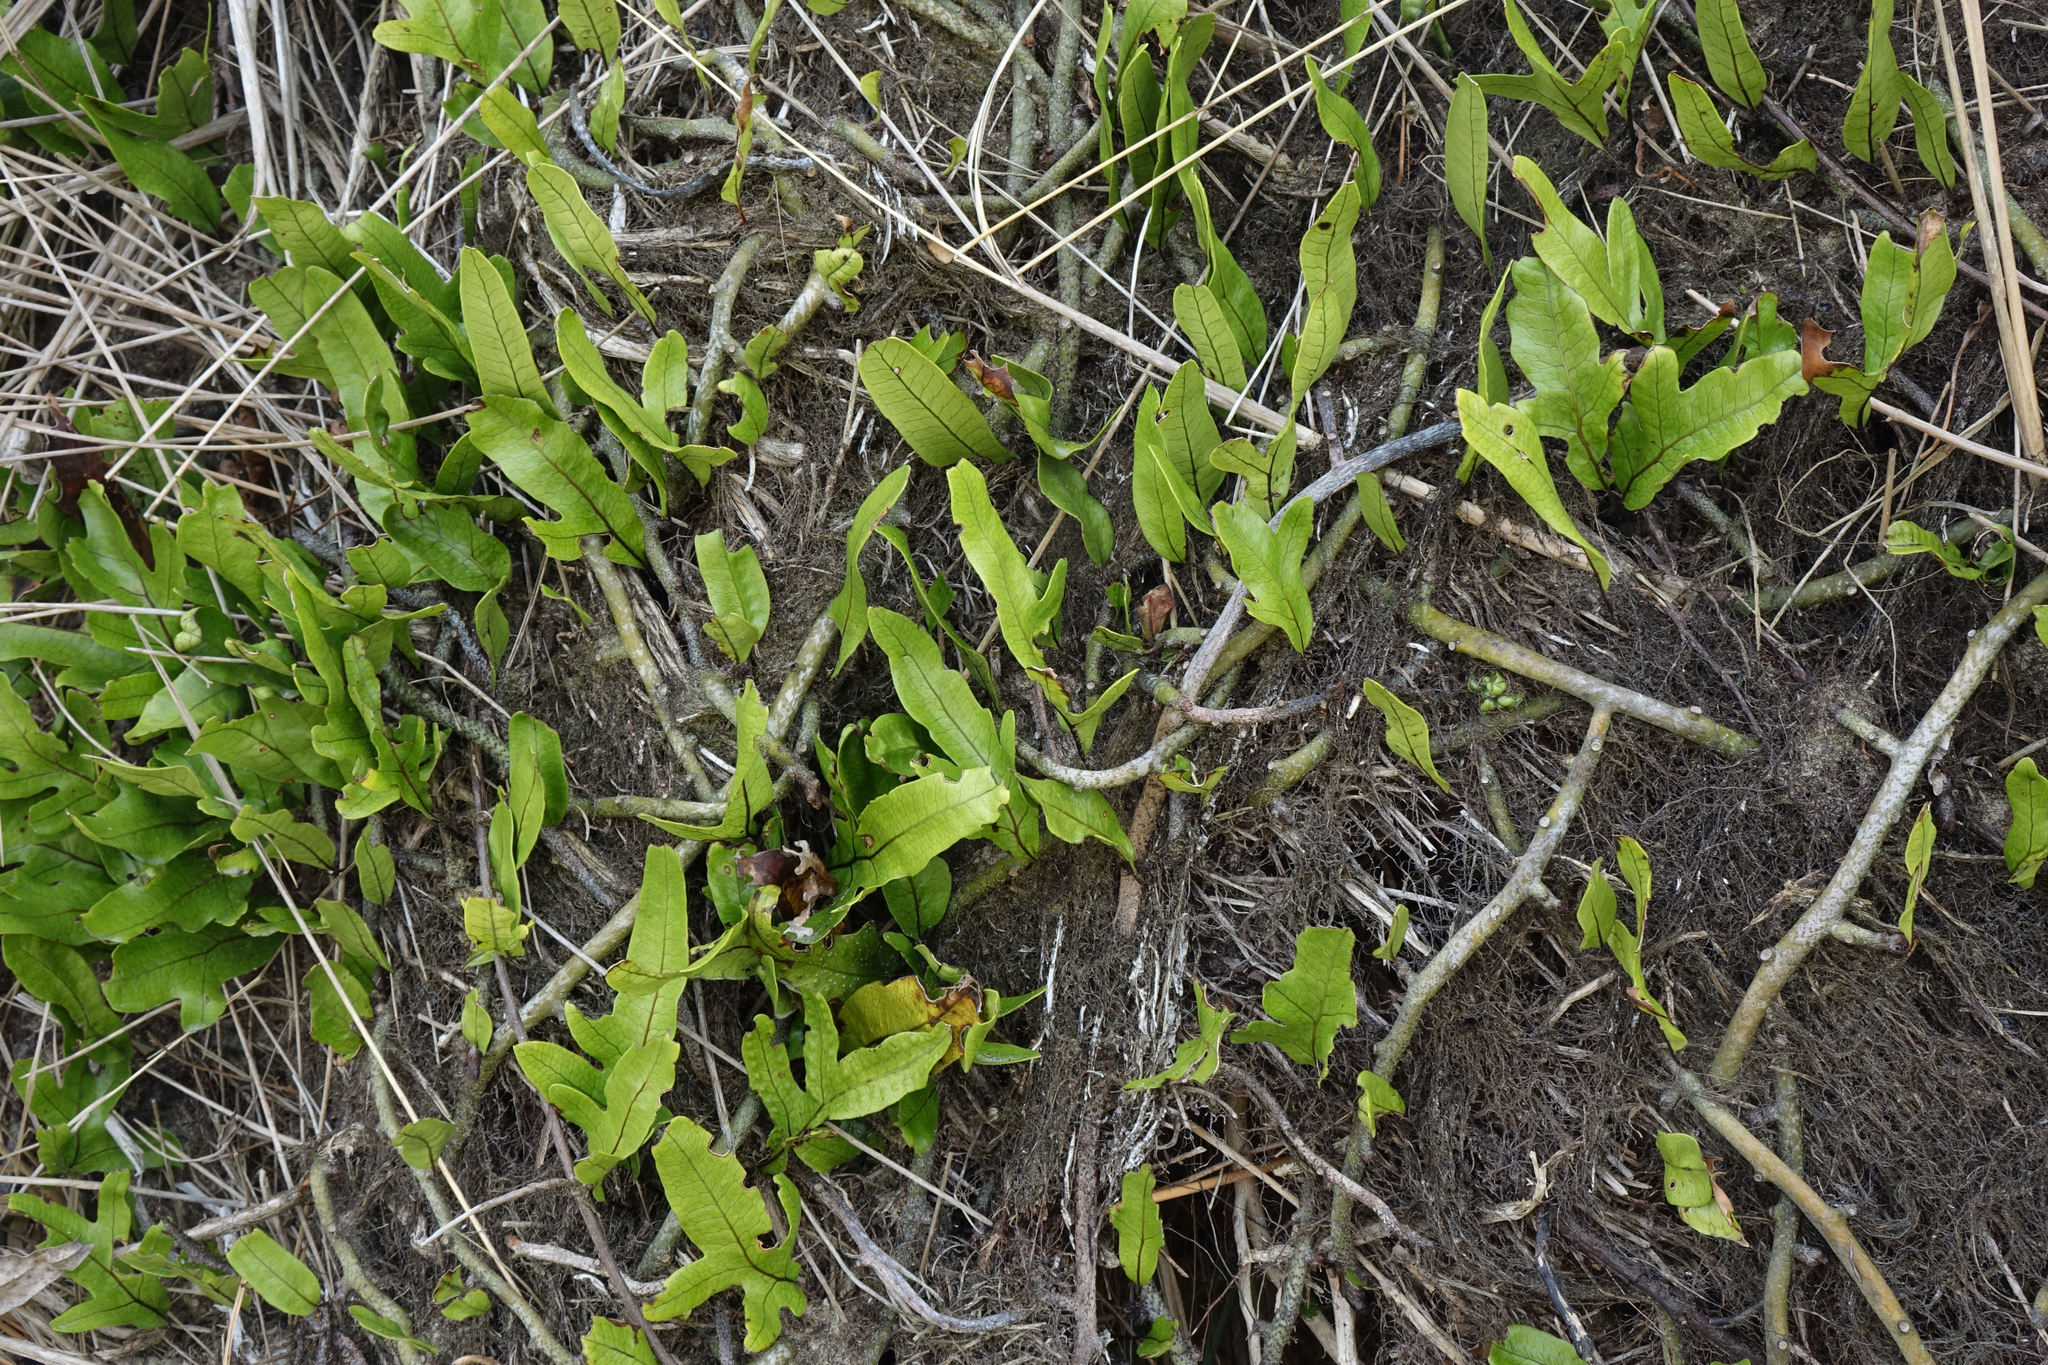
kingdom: Plantae
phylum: Tracheophyta
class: Polypodiopsida
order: Polypodiales
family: Polypodiaceae
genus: Lecanopteris
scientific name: Lecanopteris pustulata
